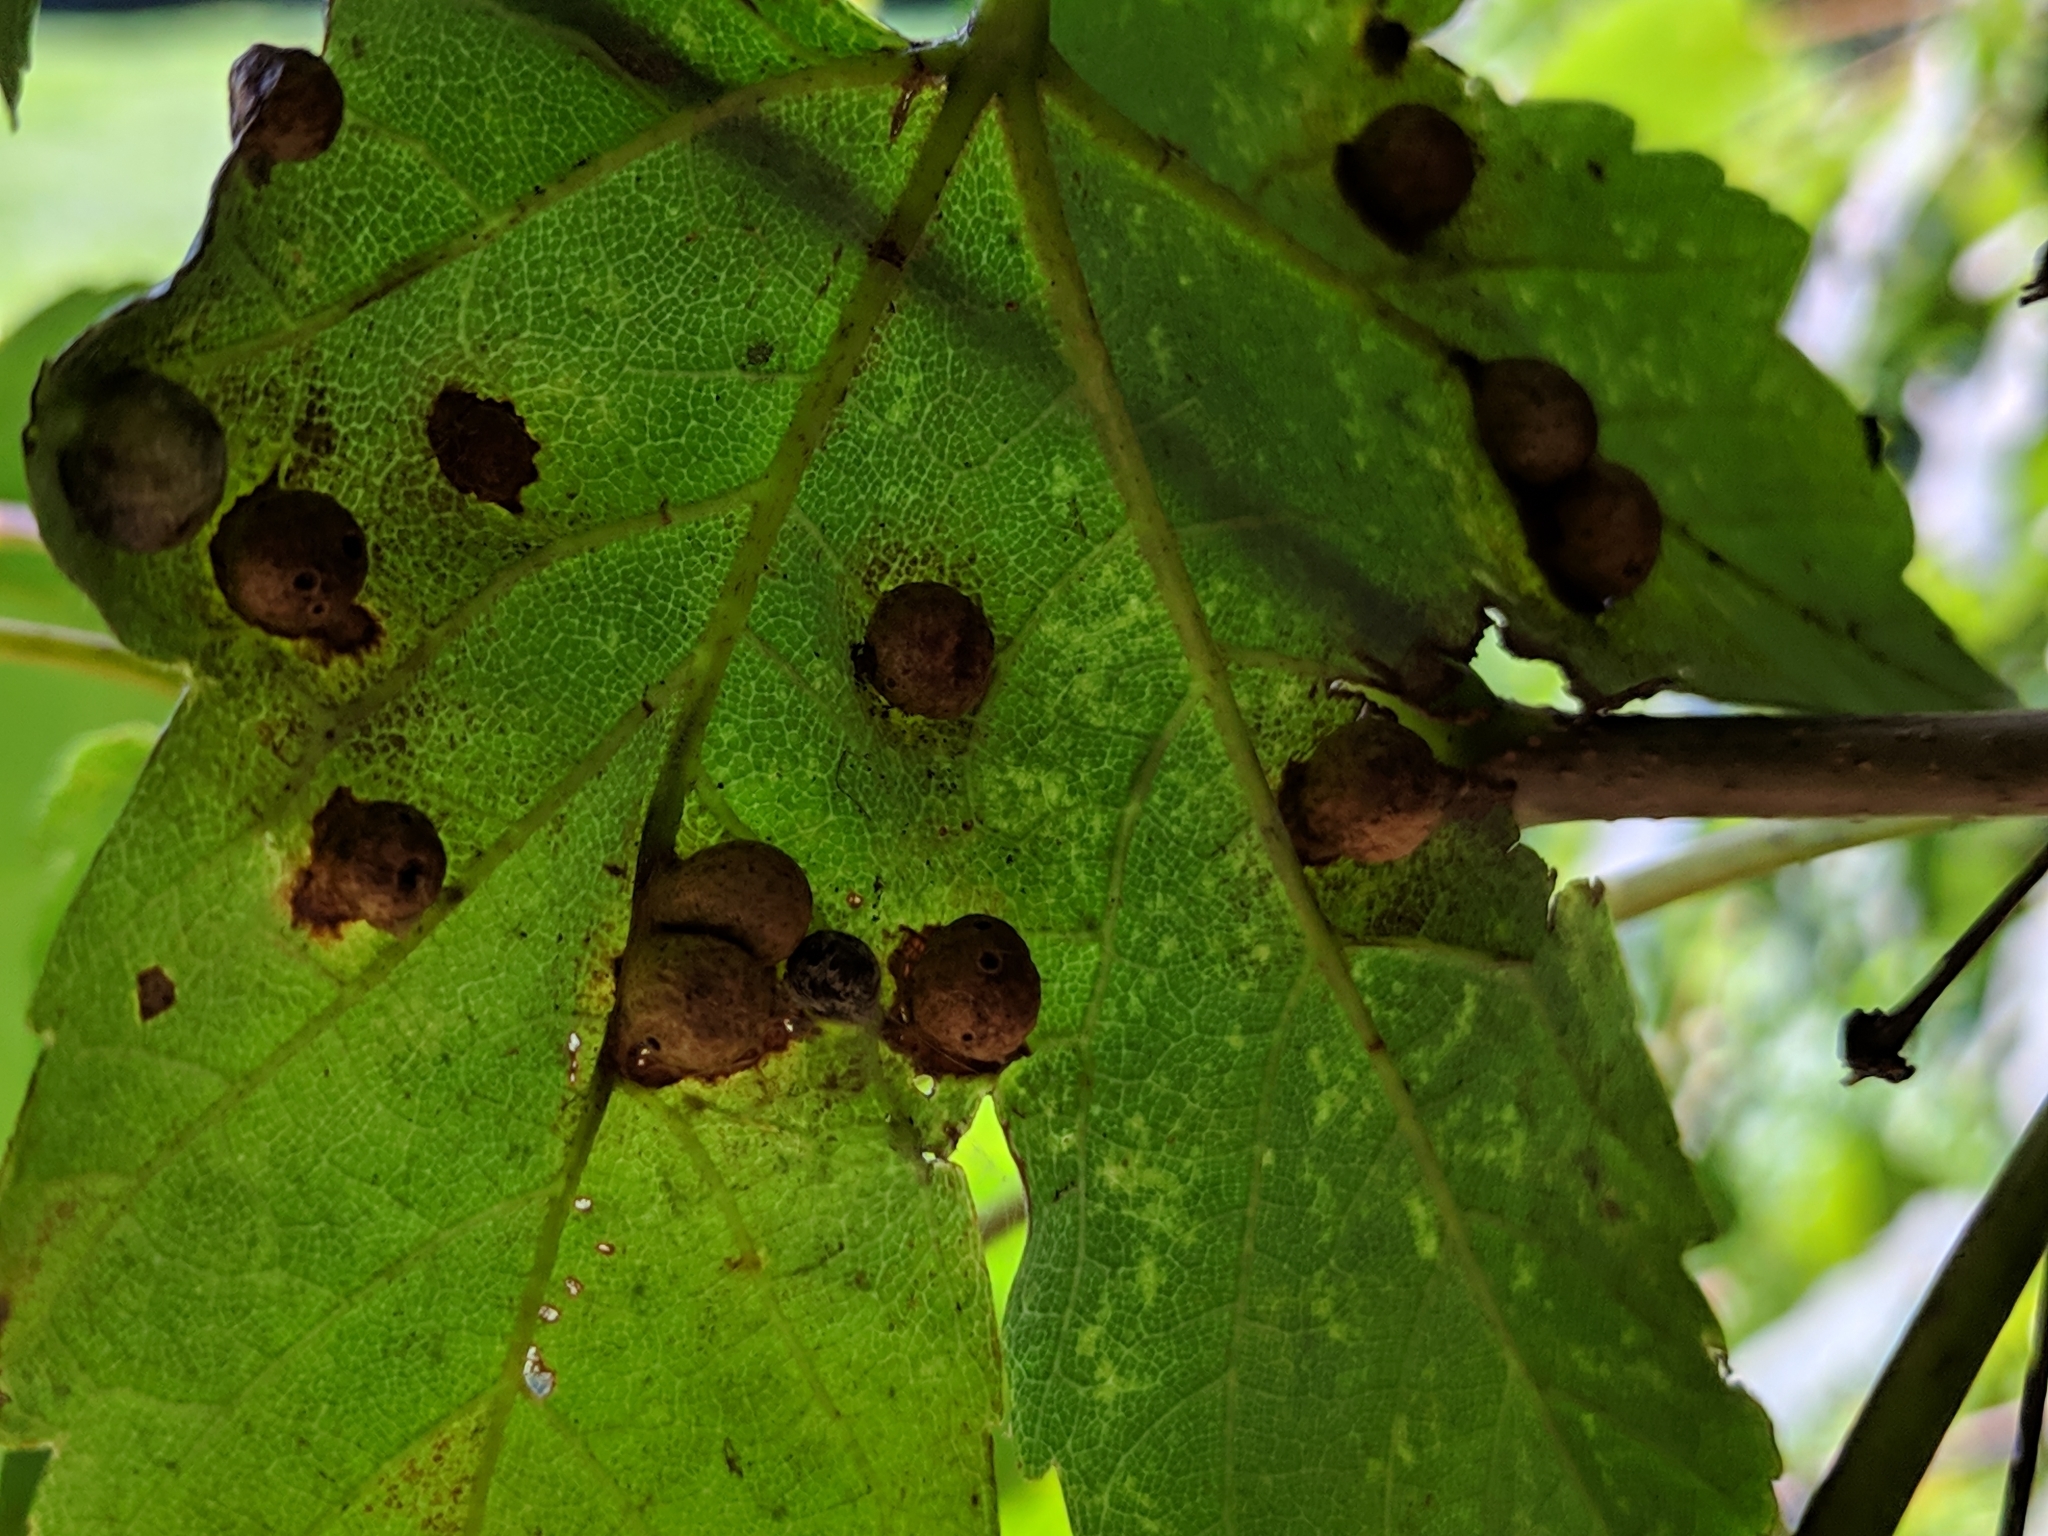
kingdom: Plantae
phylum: Tracheophyta
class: Magnoliopsida
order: Sapindales
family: Sapindaceae
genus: Acer
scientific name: Acer pseudoplatanus
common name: Sycamore
